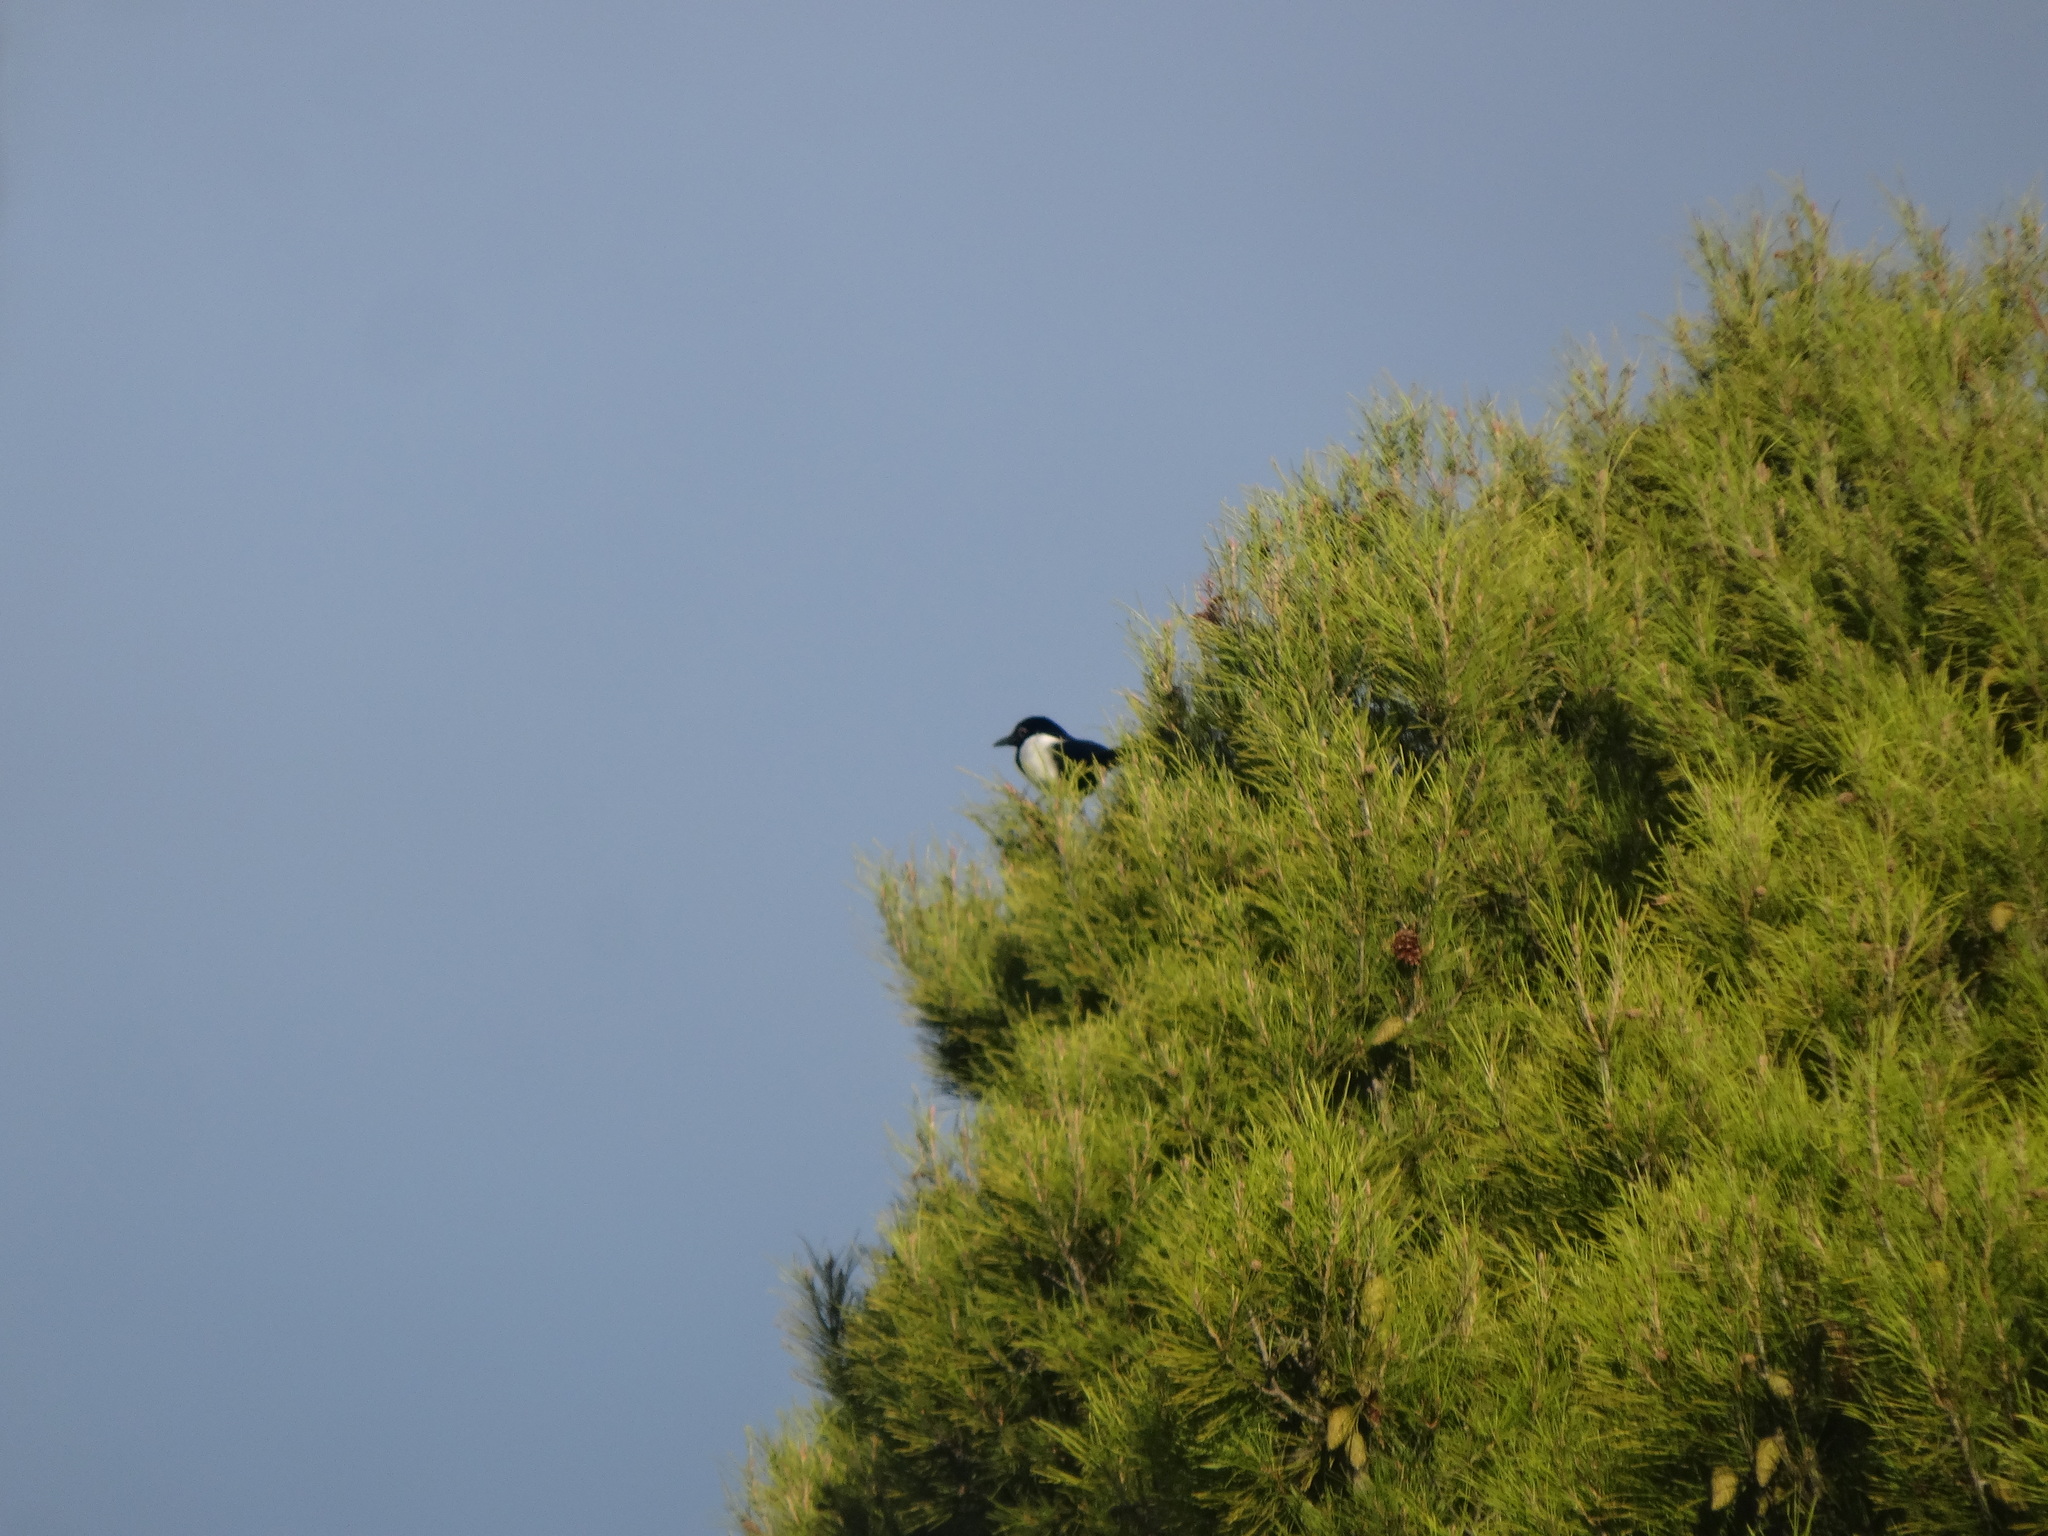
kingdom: Animalia
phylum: Chordata
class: Aves
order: Passeriformes
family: Corvidae
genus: Pica
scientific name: Pica pica
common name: Eurasian magpie
